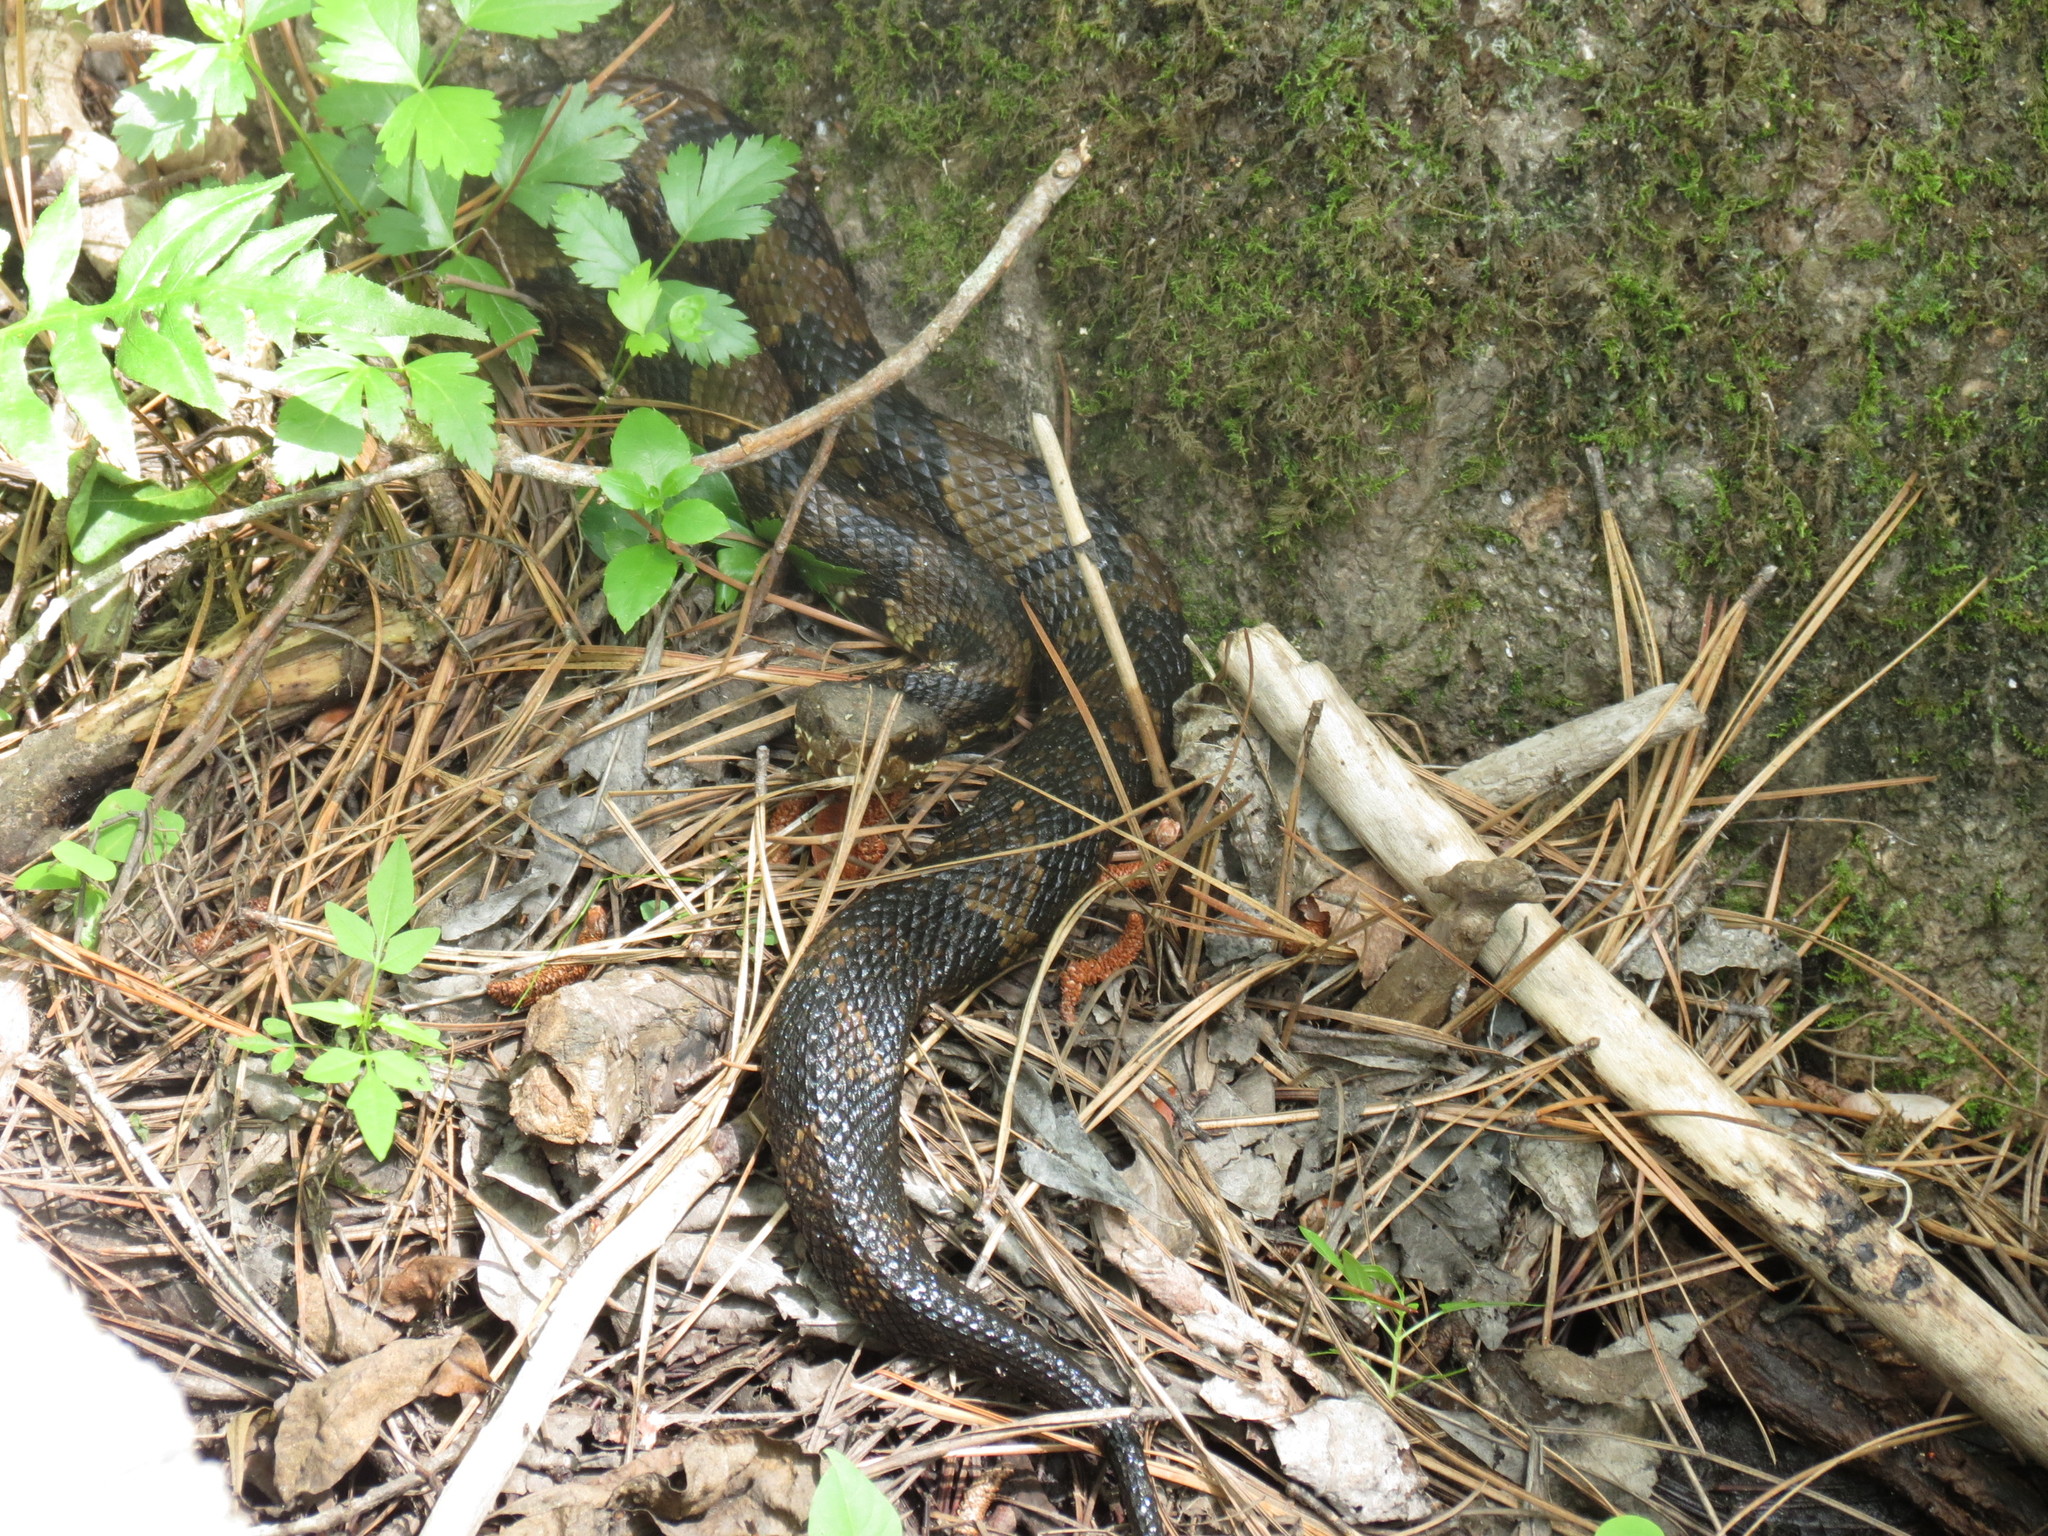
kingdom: Animalia
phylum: Chordata
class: Squamata
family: Viperidae
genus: Agkistrodon
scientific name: Agkistrodon piscivorus
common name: Cottonmouth
